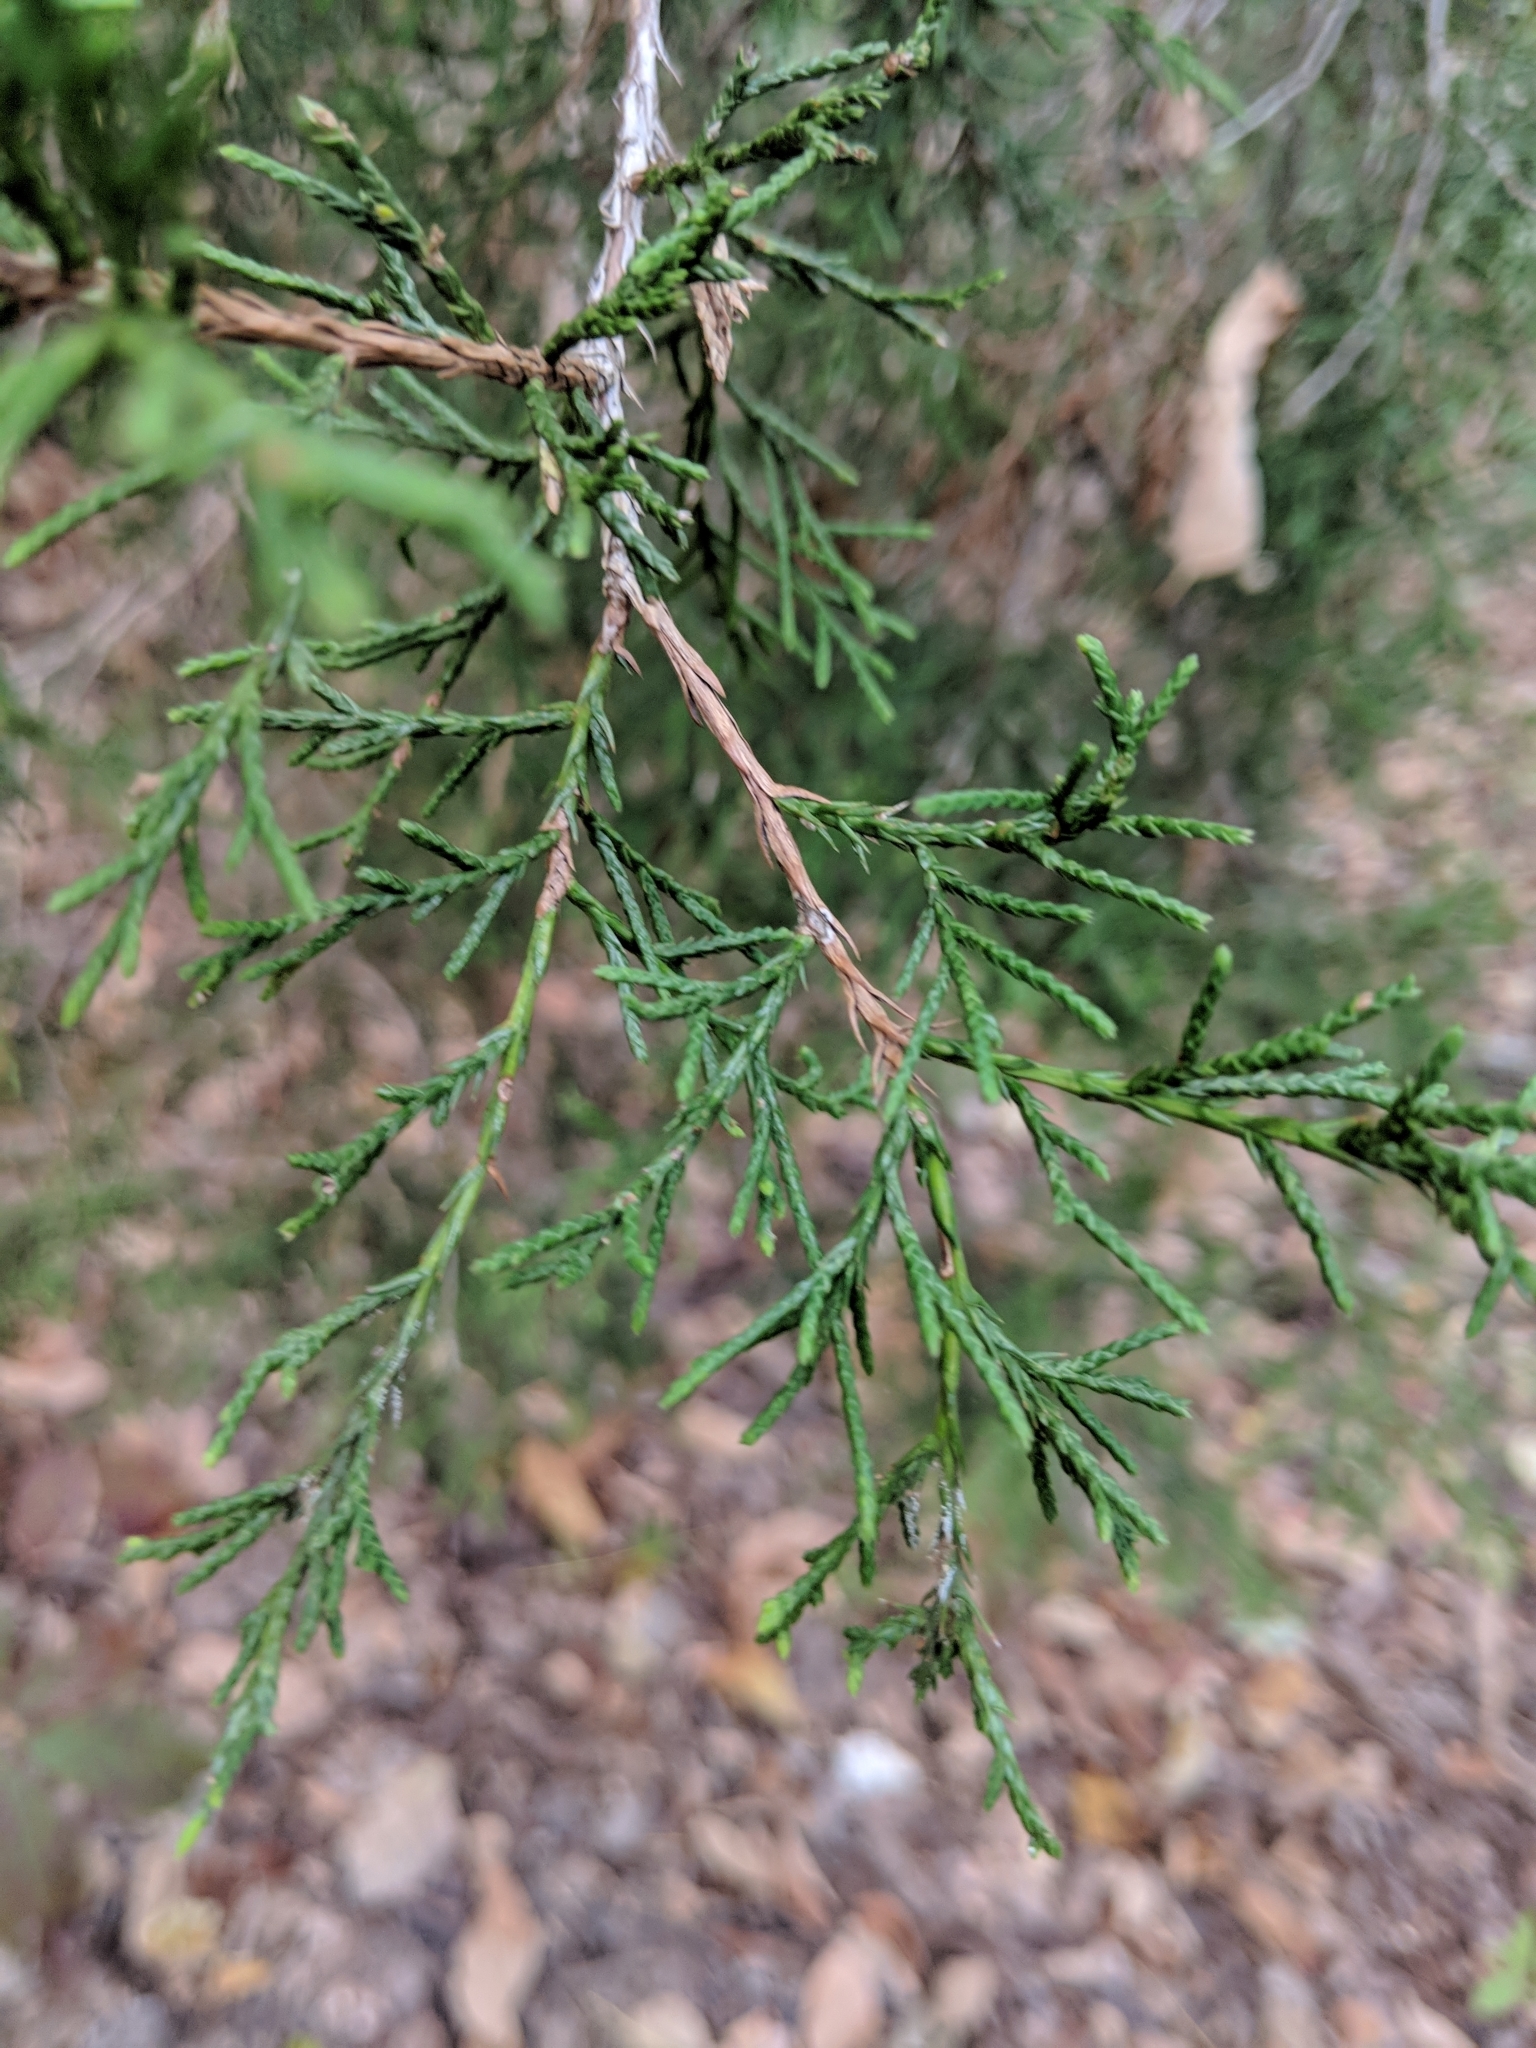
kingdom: Plantae
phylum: Tracheophyta
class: Pinopsida
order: Pinales
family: Cupressaceae
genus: Juniperus
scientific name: Juniperus virginiana
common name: Red juniper
